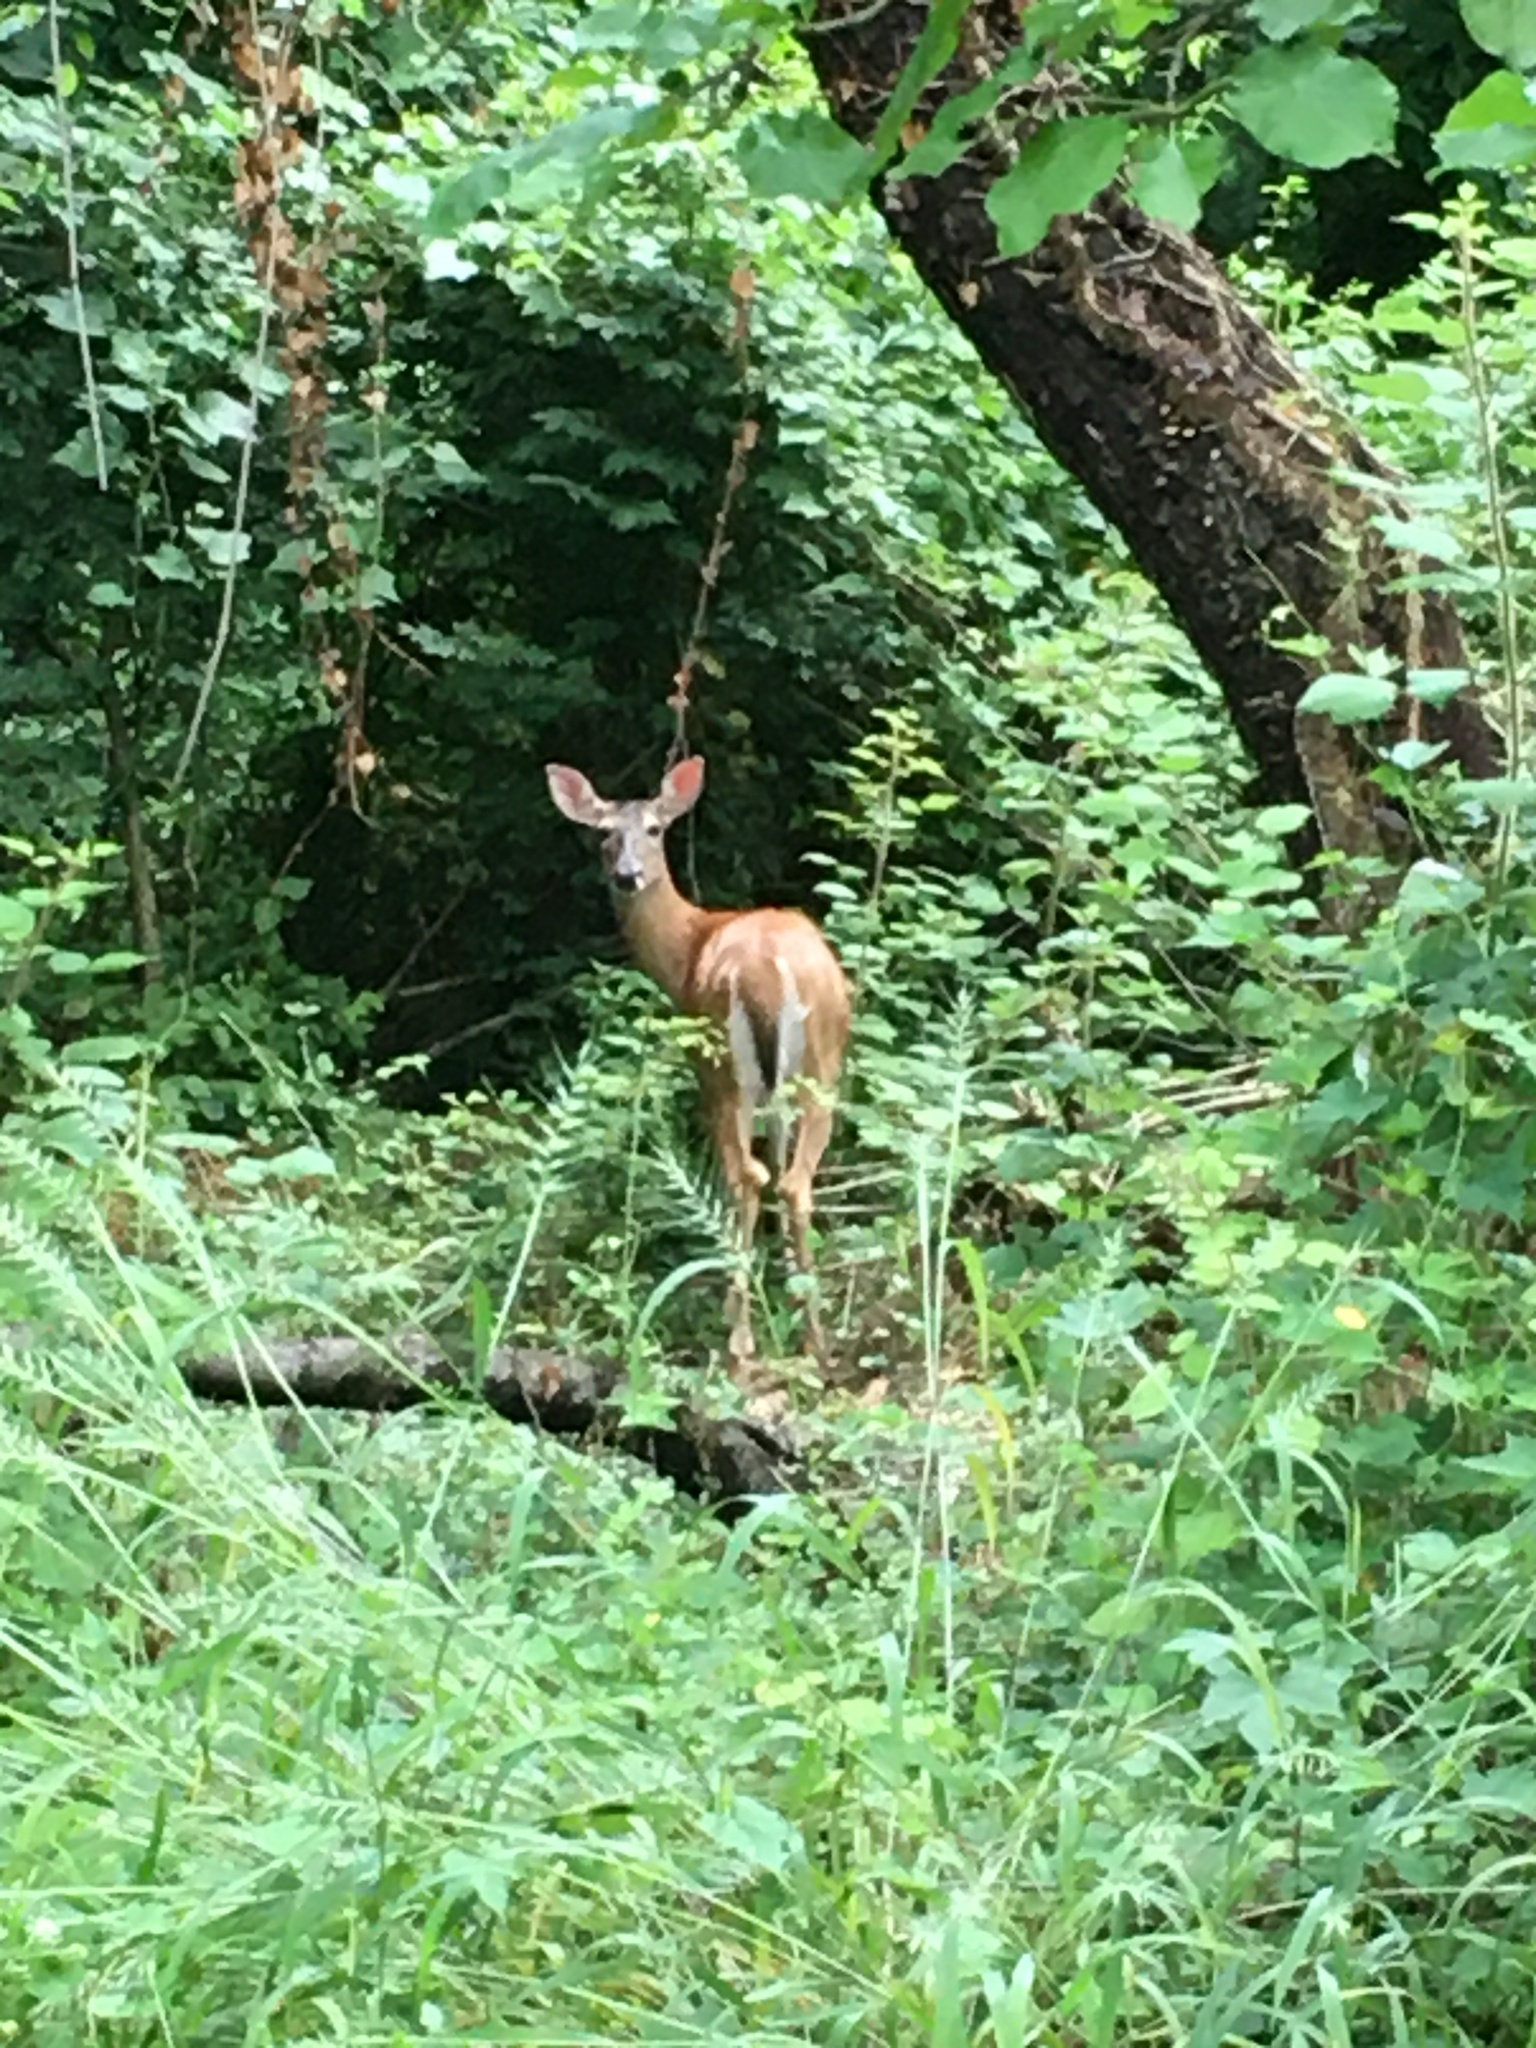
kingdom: Animalia
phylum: Chordata
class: Mammalia
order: Artiodactyla
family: Cervidae
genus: Odocoileus
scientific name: Odocoileus virginianus
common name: White-tailed deer
